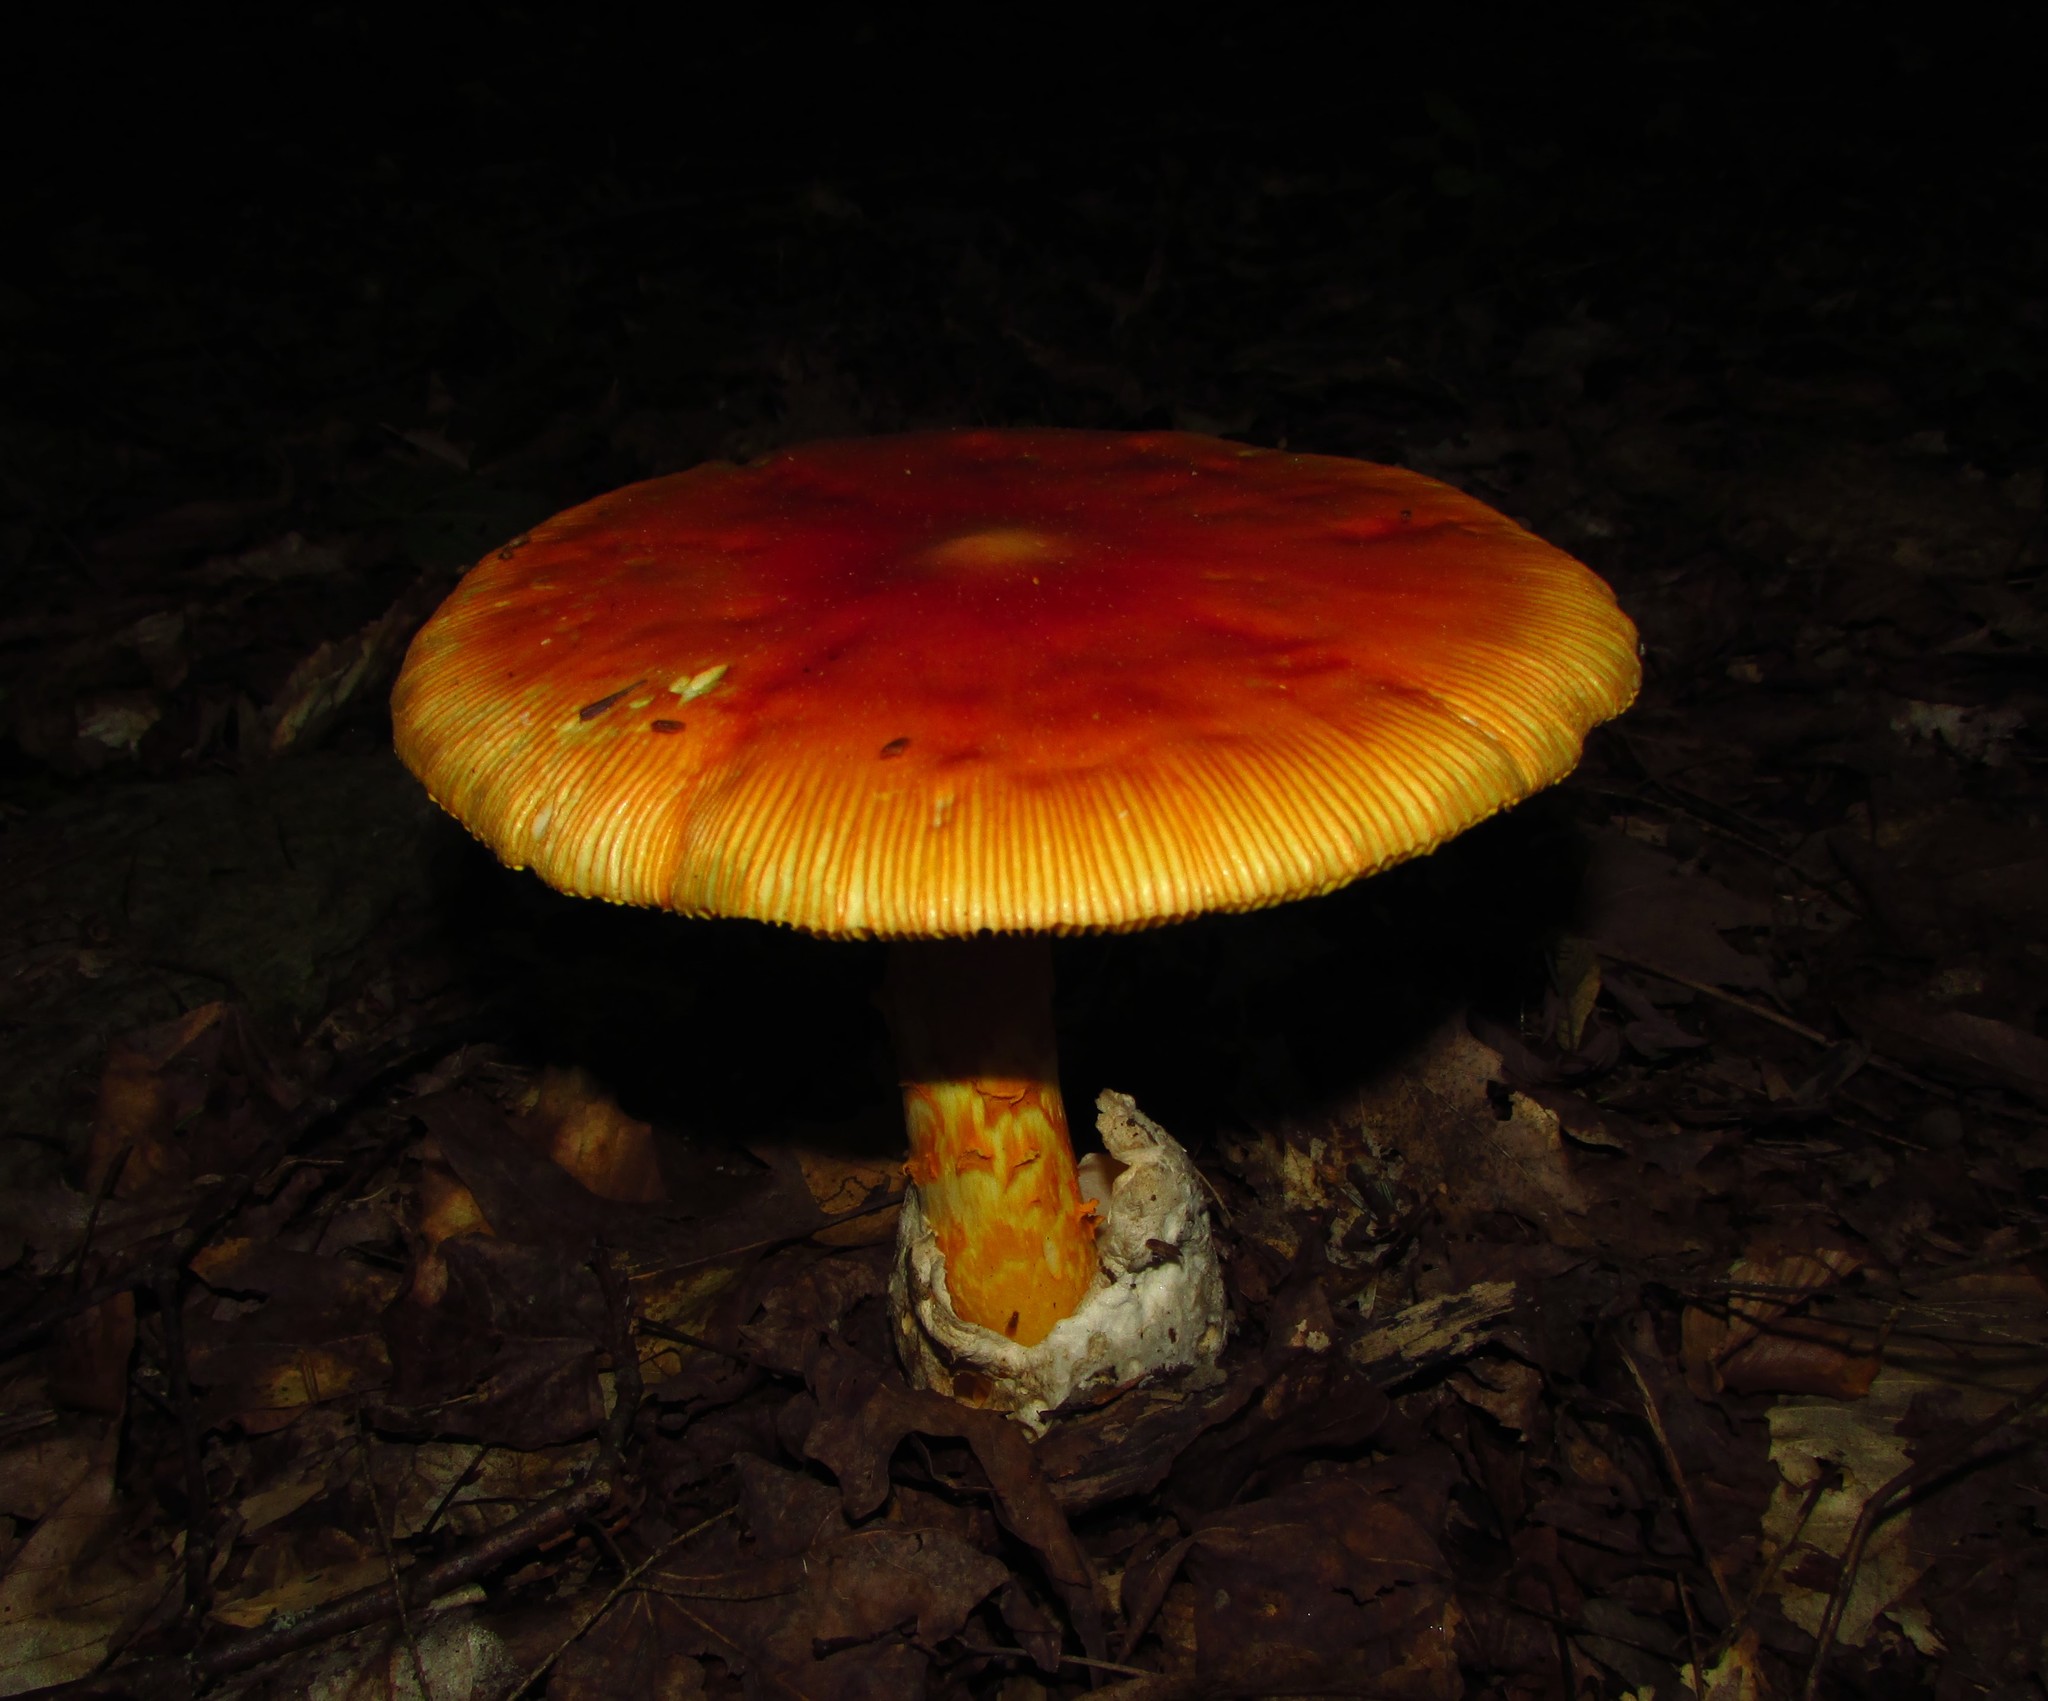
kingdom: Fungi
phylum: Basidiomycota
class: Agaricomycetes
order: Agaricales
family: Amanitaceae
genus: Amanita
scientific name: Amanita jacksonii
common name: Jackson's slender caesar
